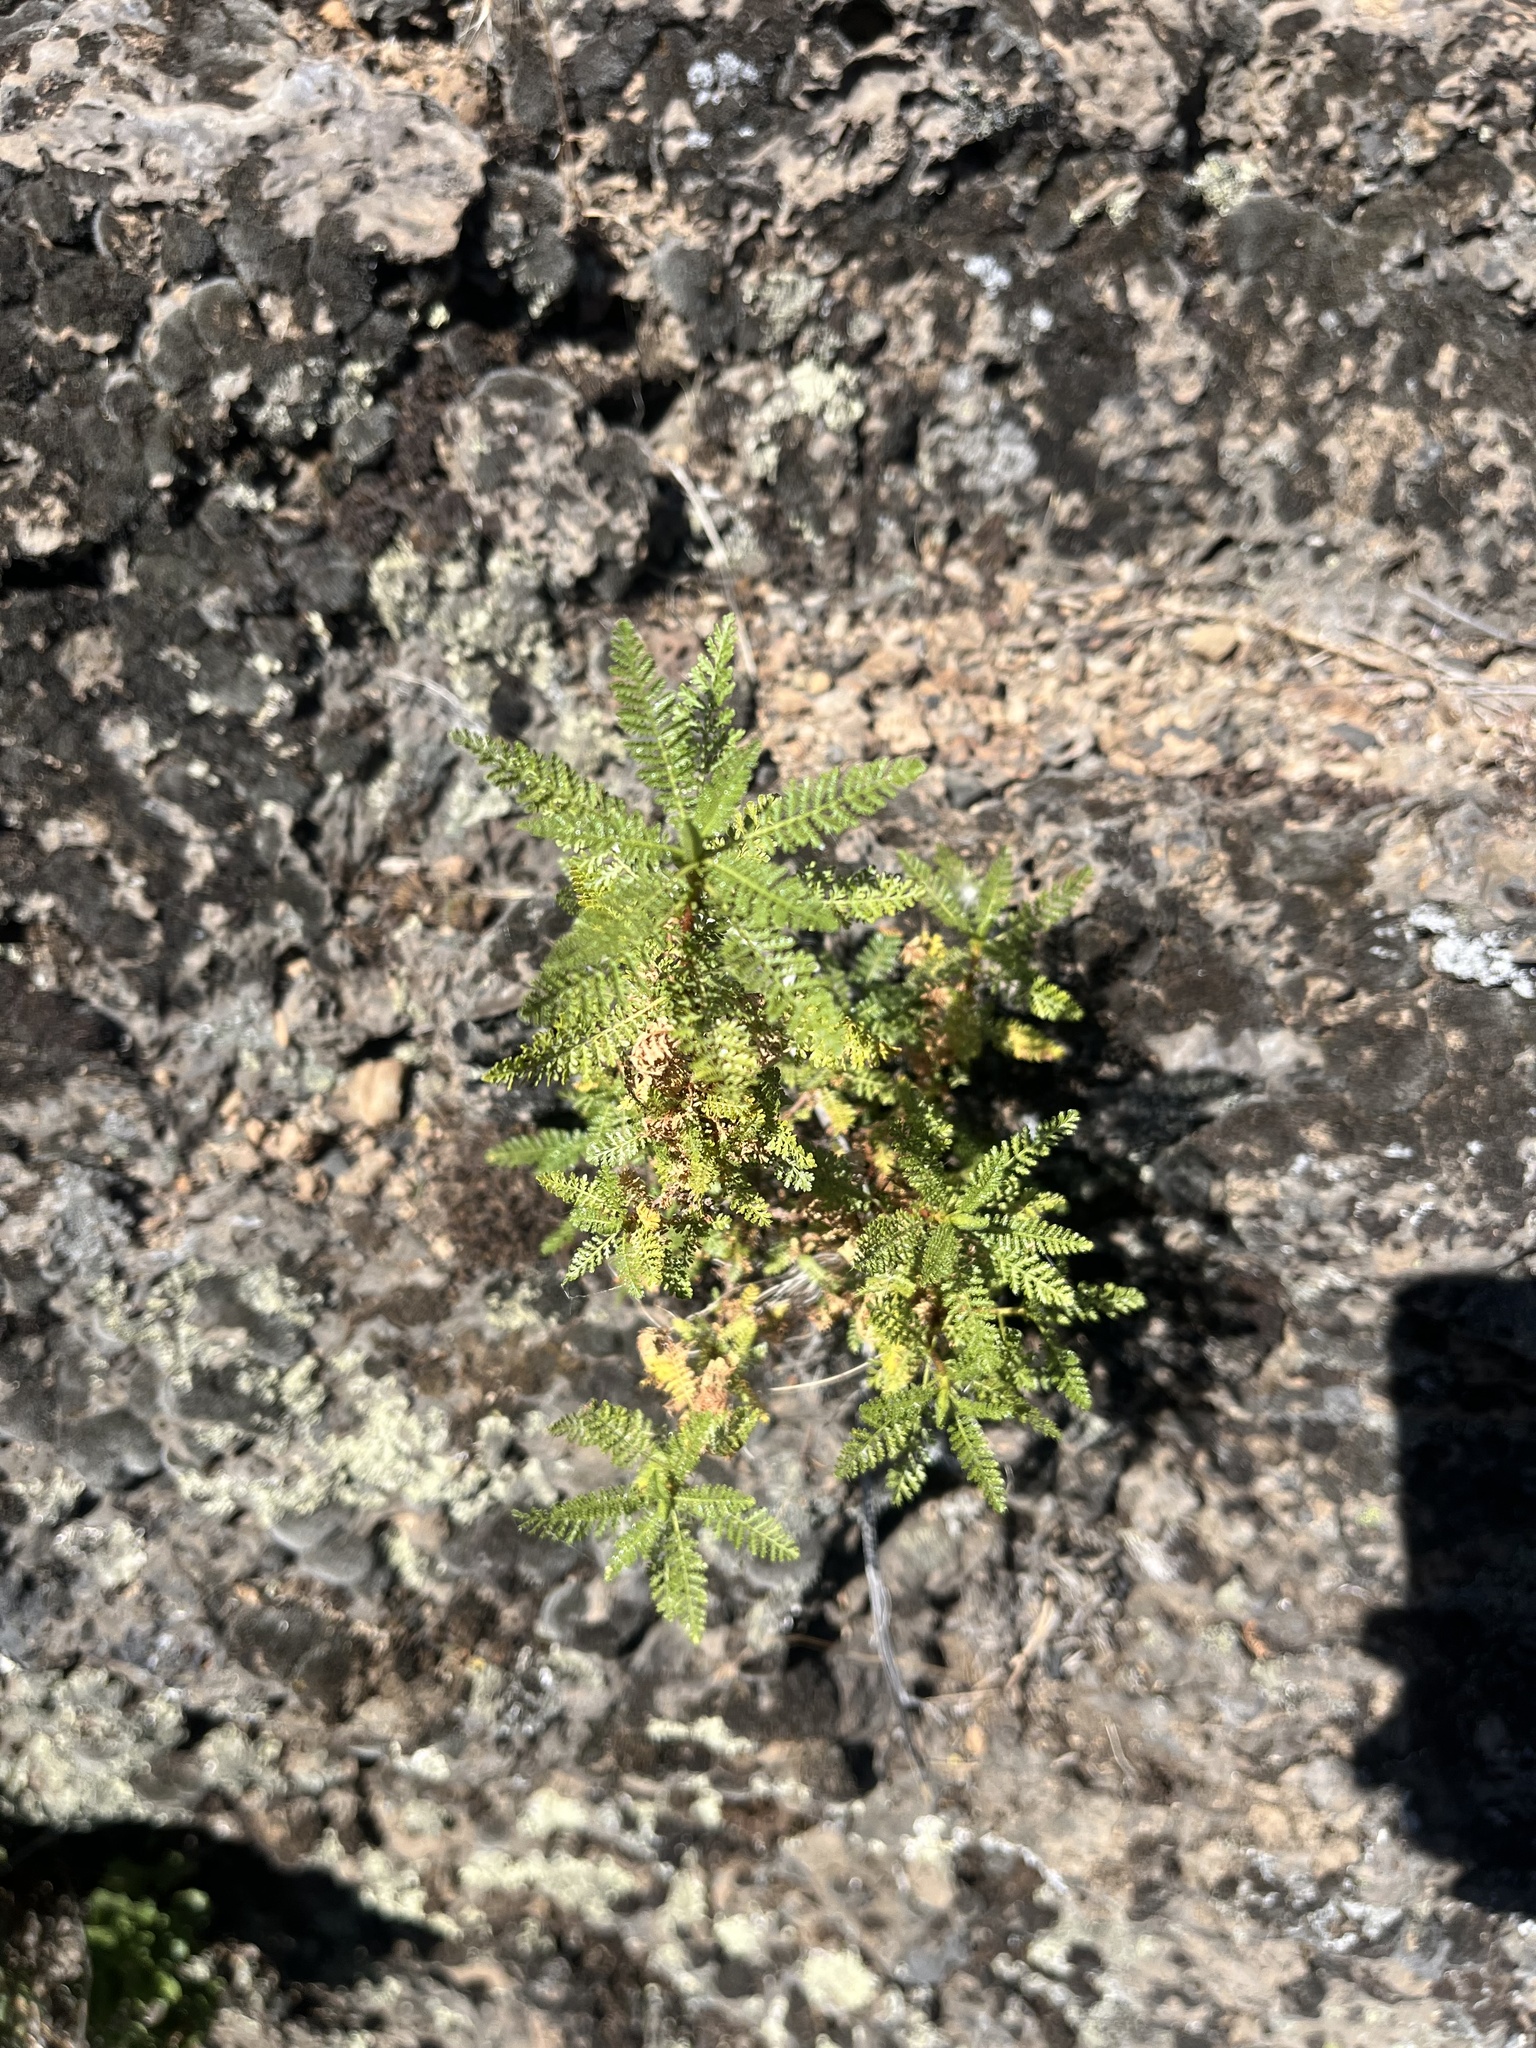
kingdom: Plantae
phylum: Tracheophyta
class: Magnoliopsida
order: Rosales
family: Rosaceae
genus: Chamaebatiaria
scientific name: Chamaebatiaria millefolium
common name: Fernbush
